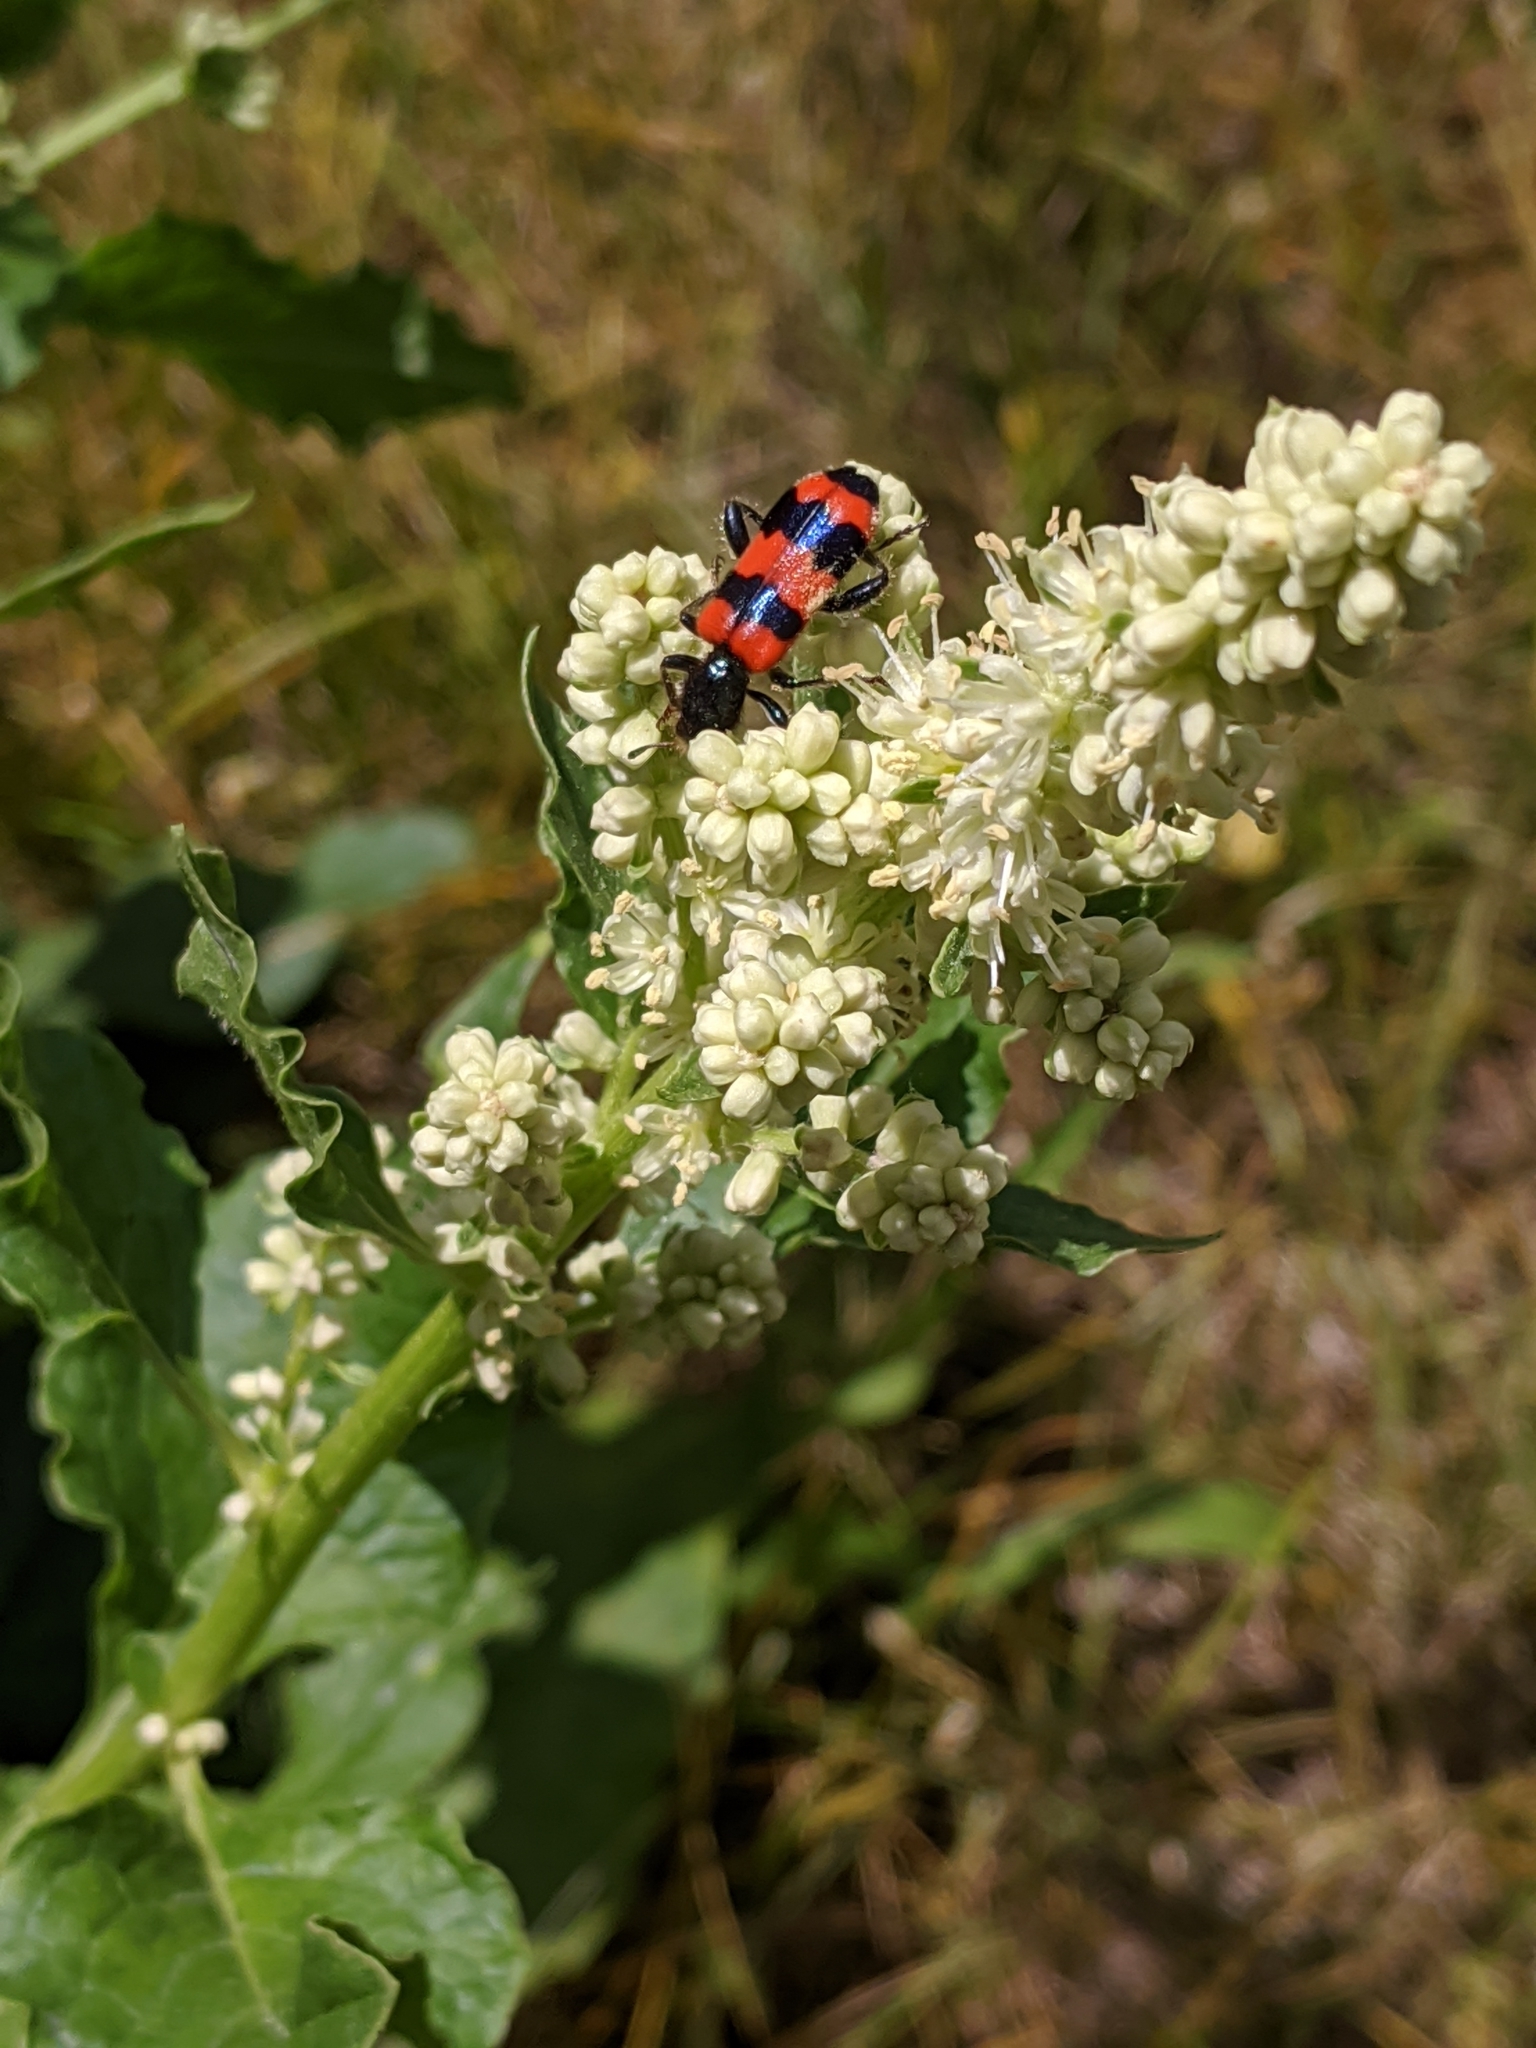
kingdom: Animalia
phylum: Arthropoda
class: Insecta
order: Coleoptera
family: Cleridae
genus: Trichodes
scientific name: Trichodes apiarius
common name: Bee-eating beetle
